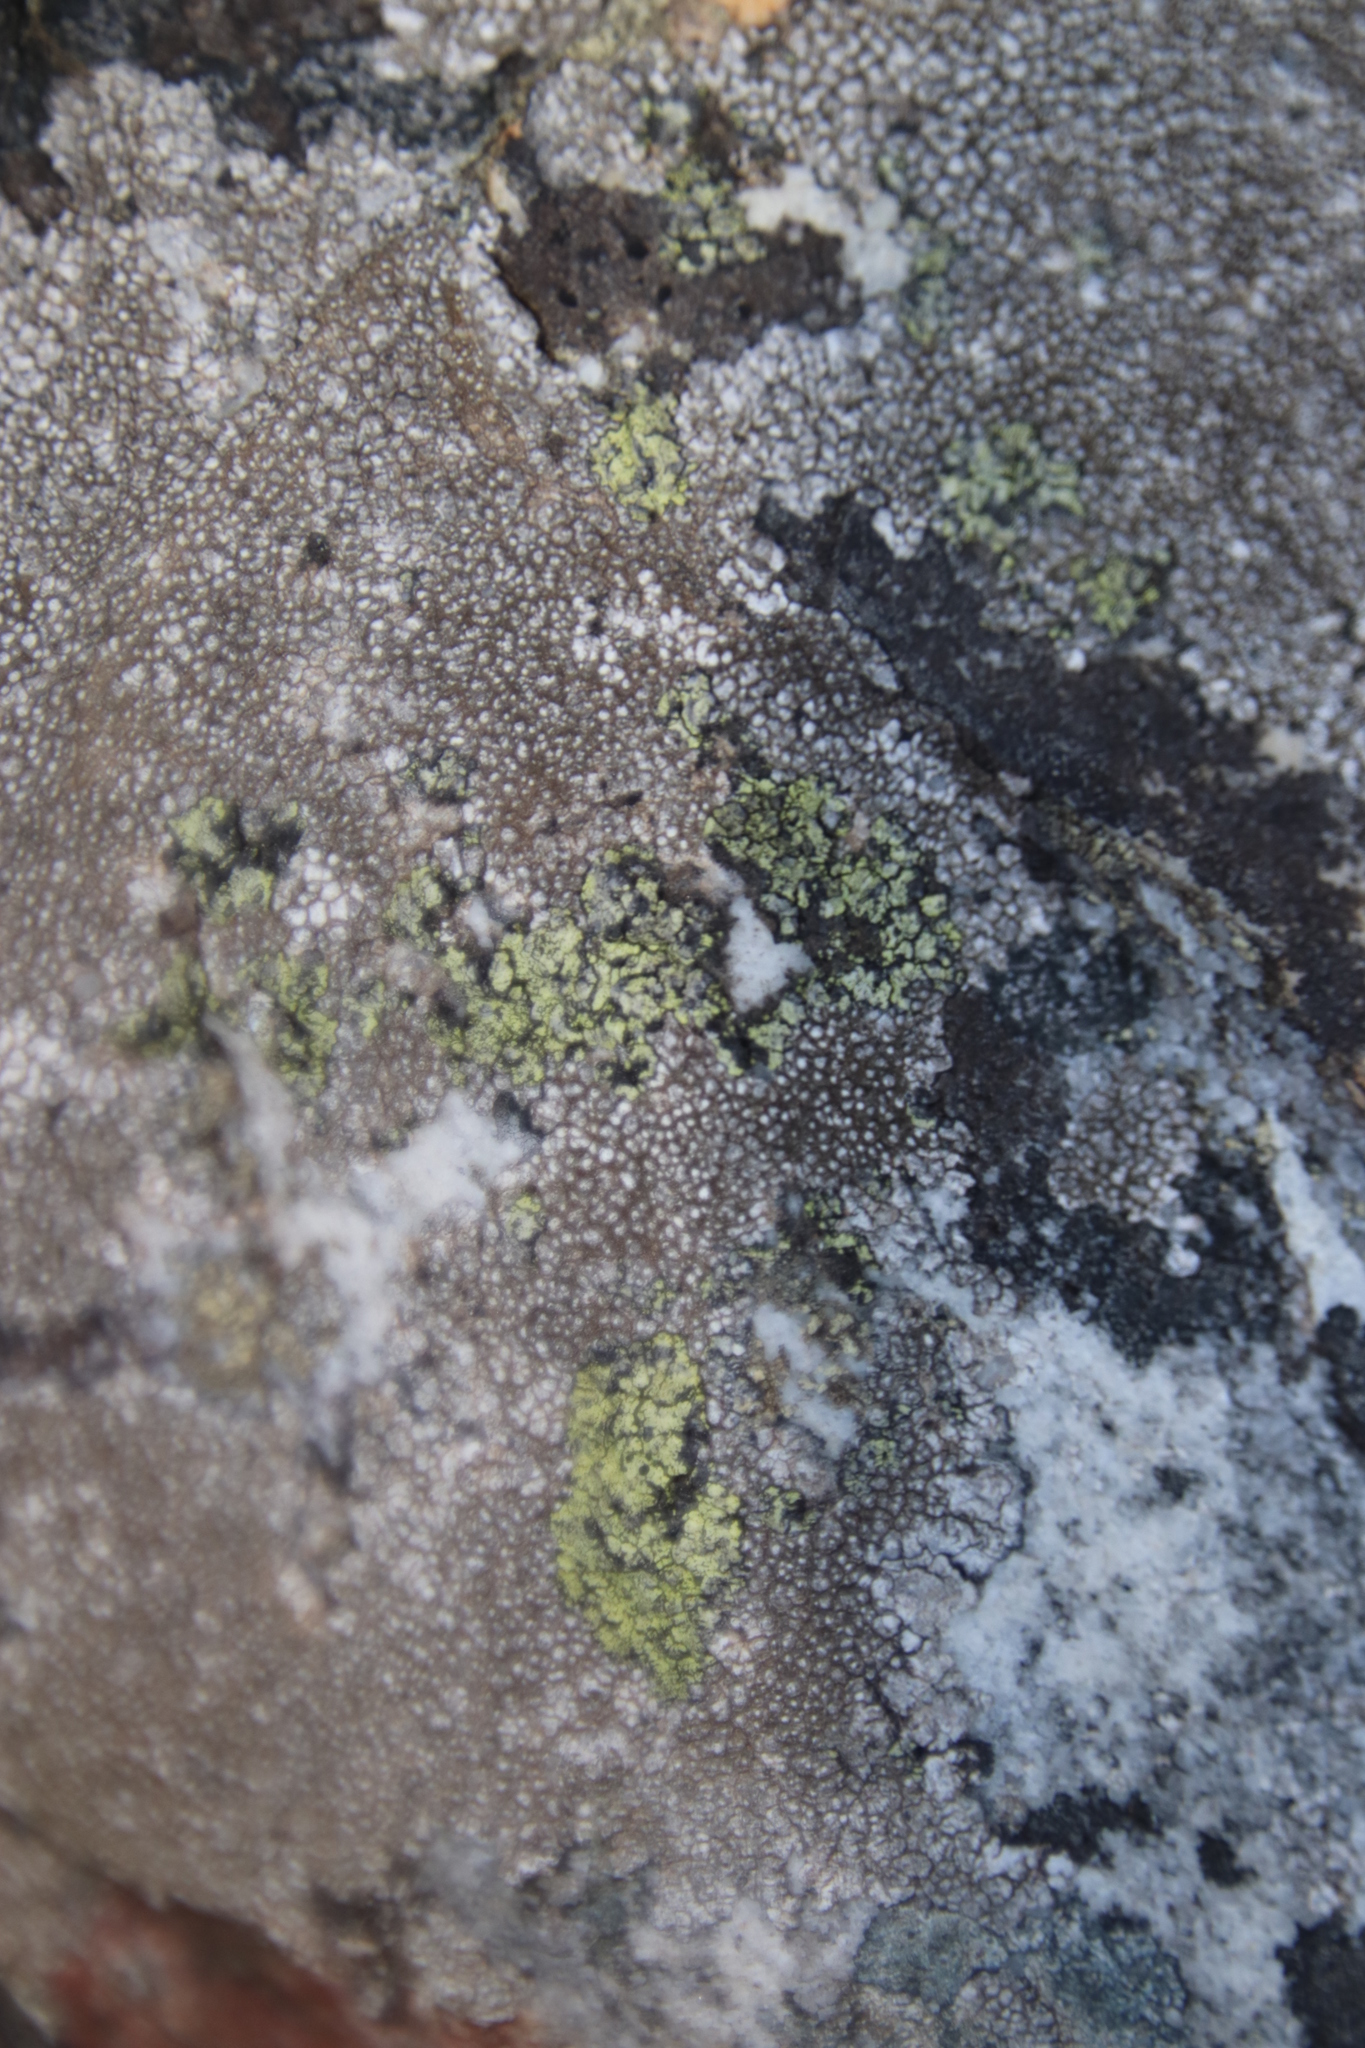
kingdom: Fungi
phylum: Ascomycota
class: Lecanoromycetes
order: Caliciales
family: Caliciaceae
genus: Diploicia
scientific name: Diploicia africana
